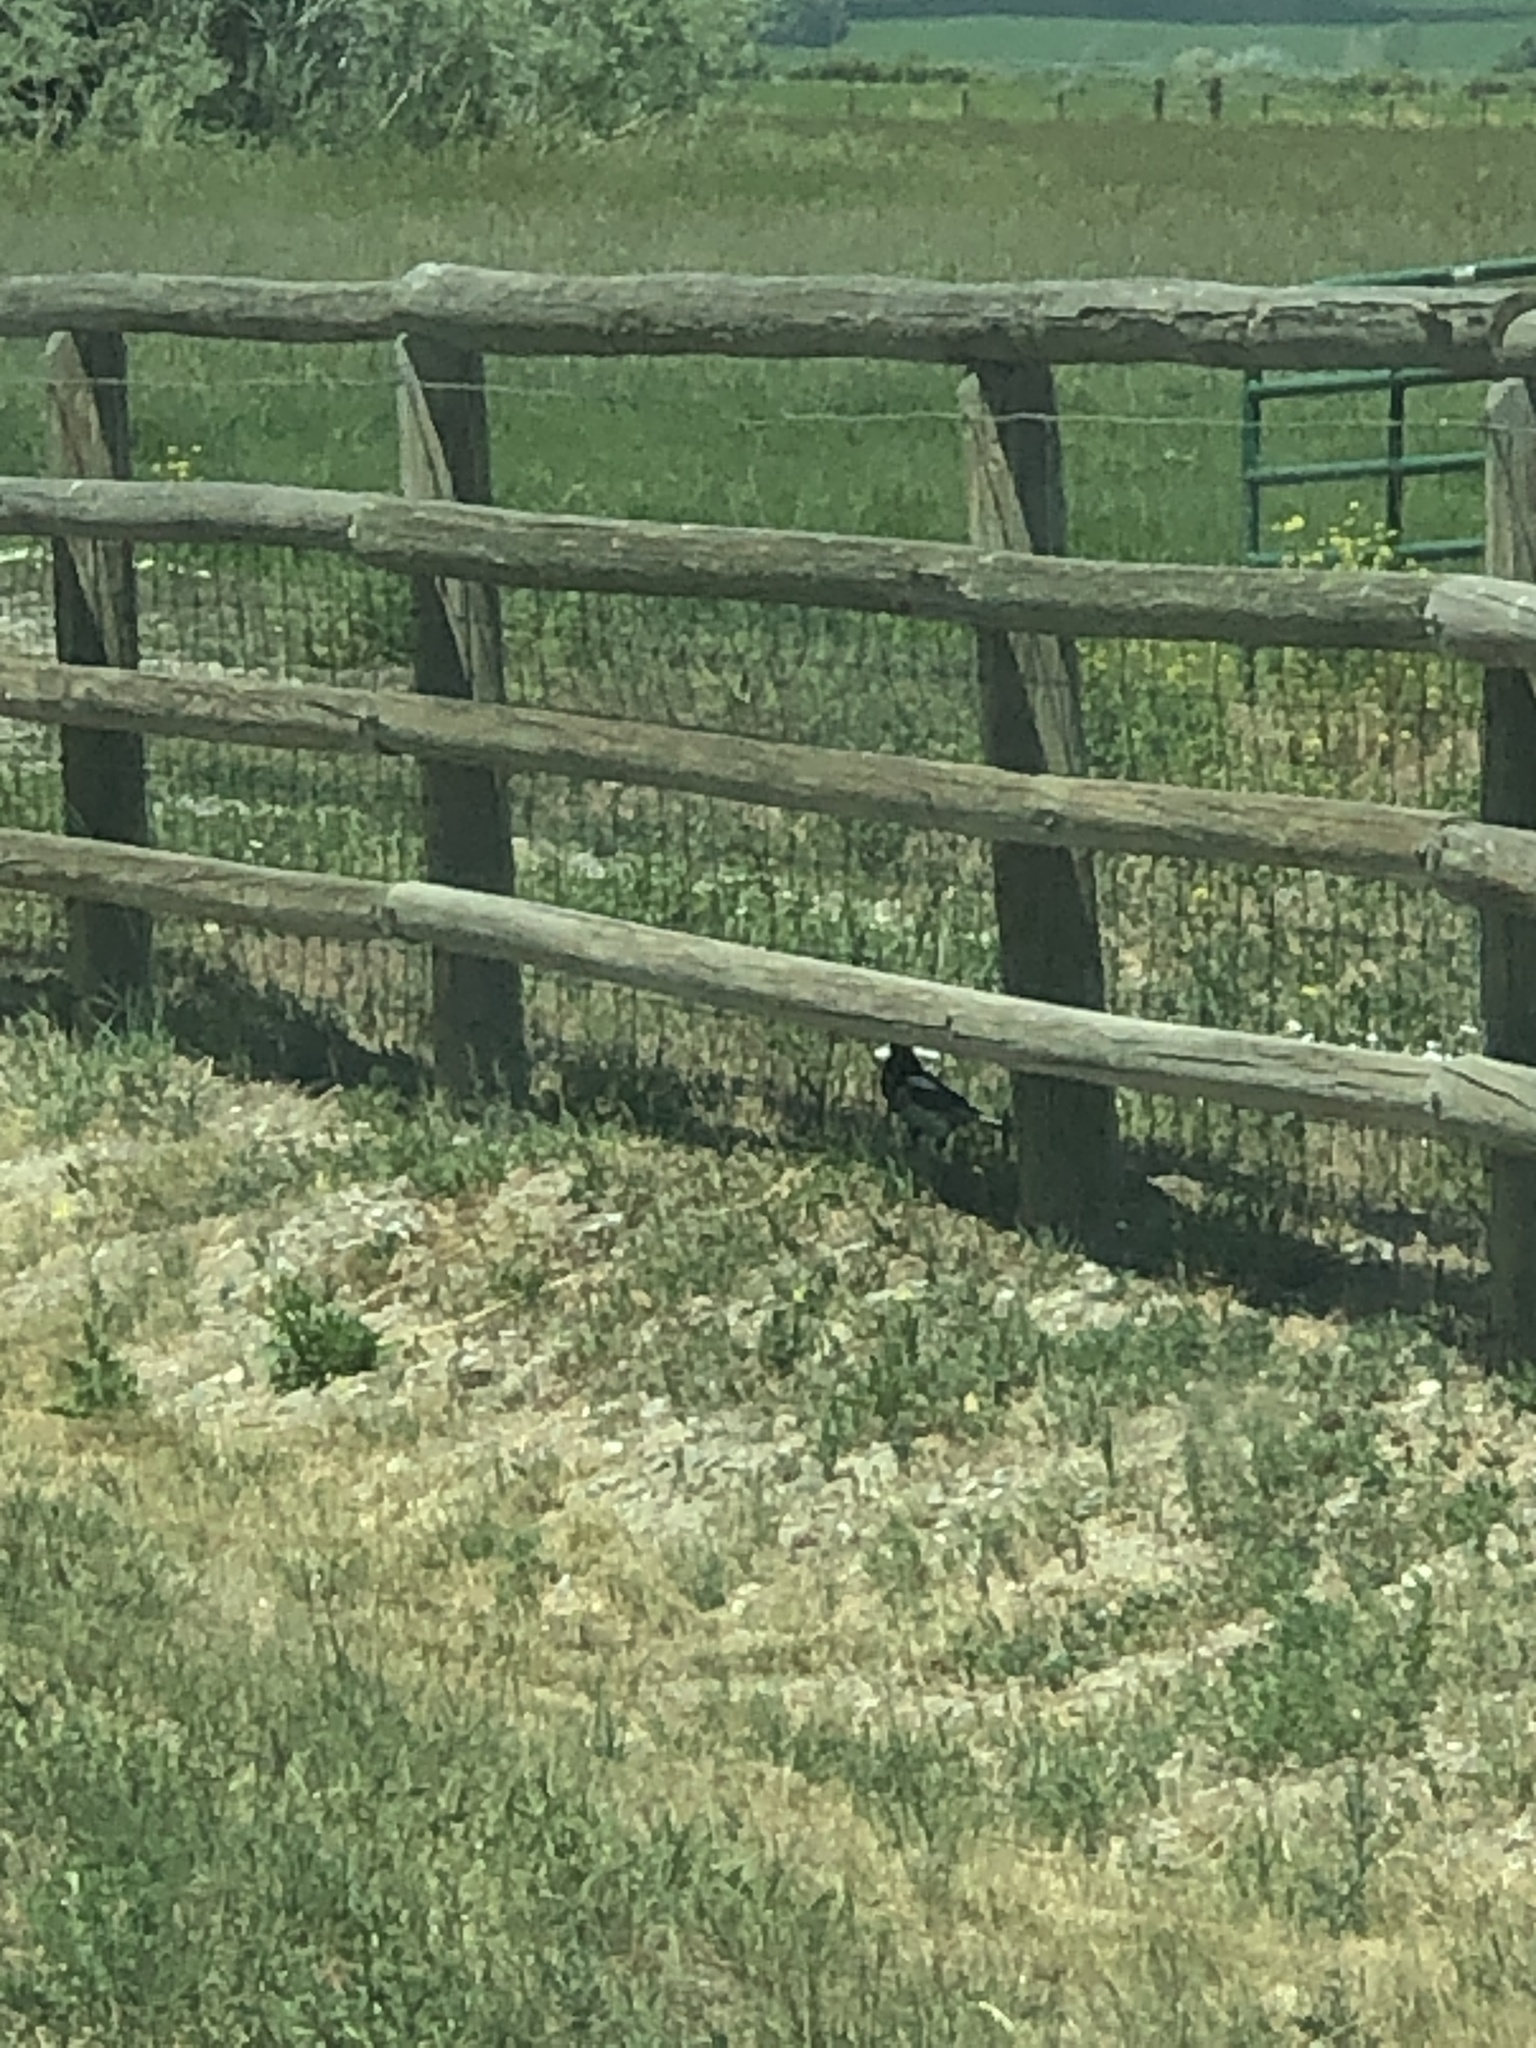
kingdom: Animalia
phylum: Chordata
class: Aves
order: Passeriformes
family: Corvidae
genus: Pica
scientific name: Pica hudsonia
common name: Black-billed magpie
